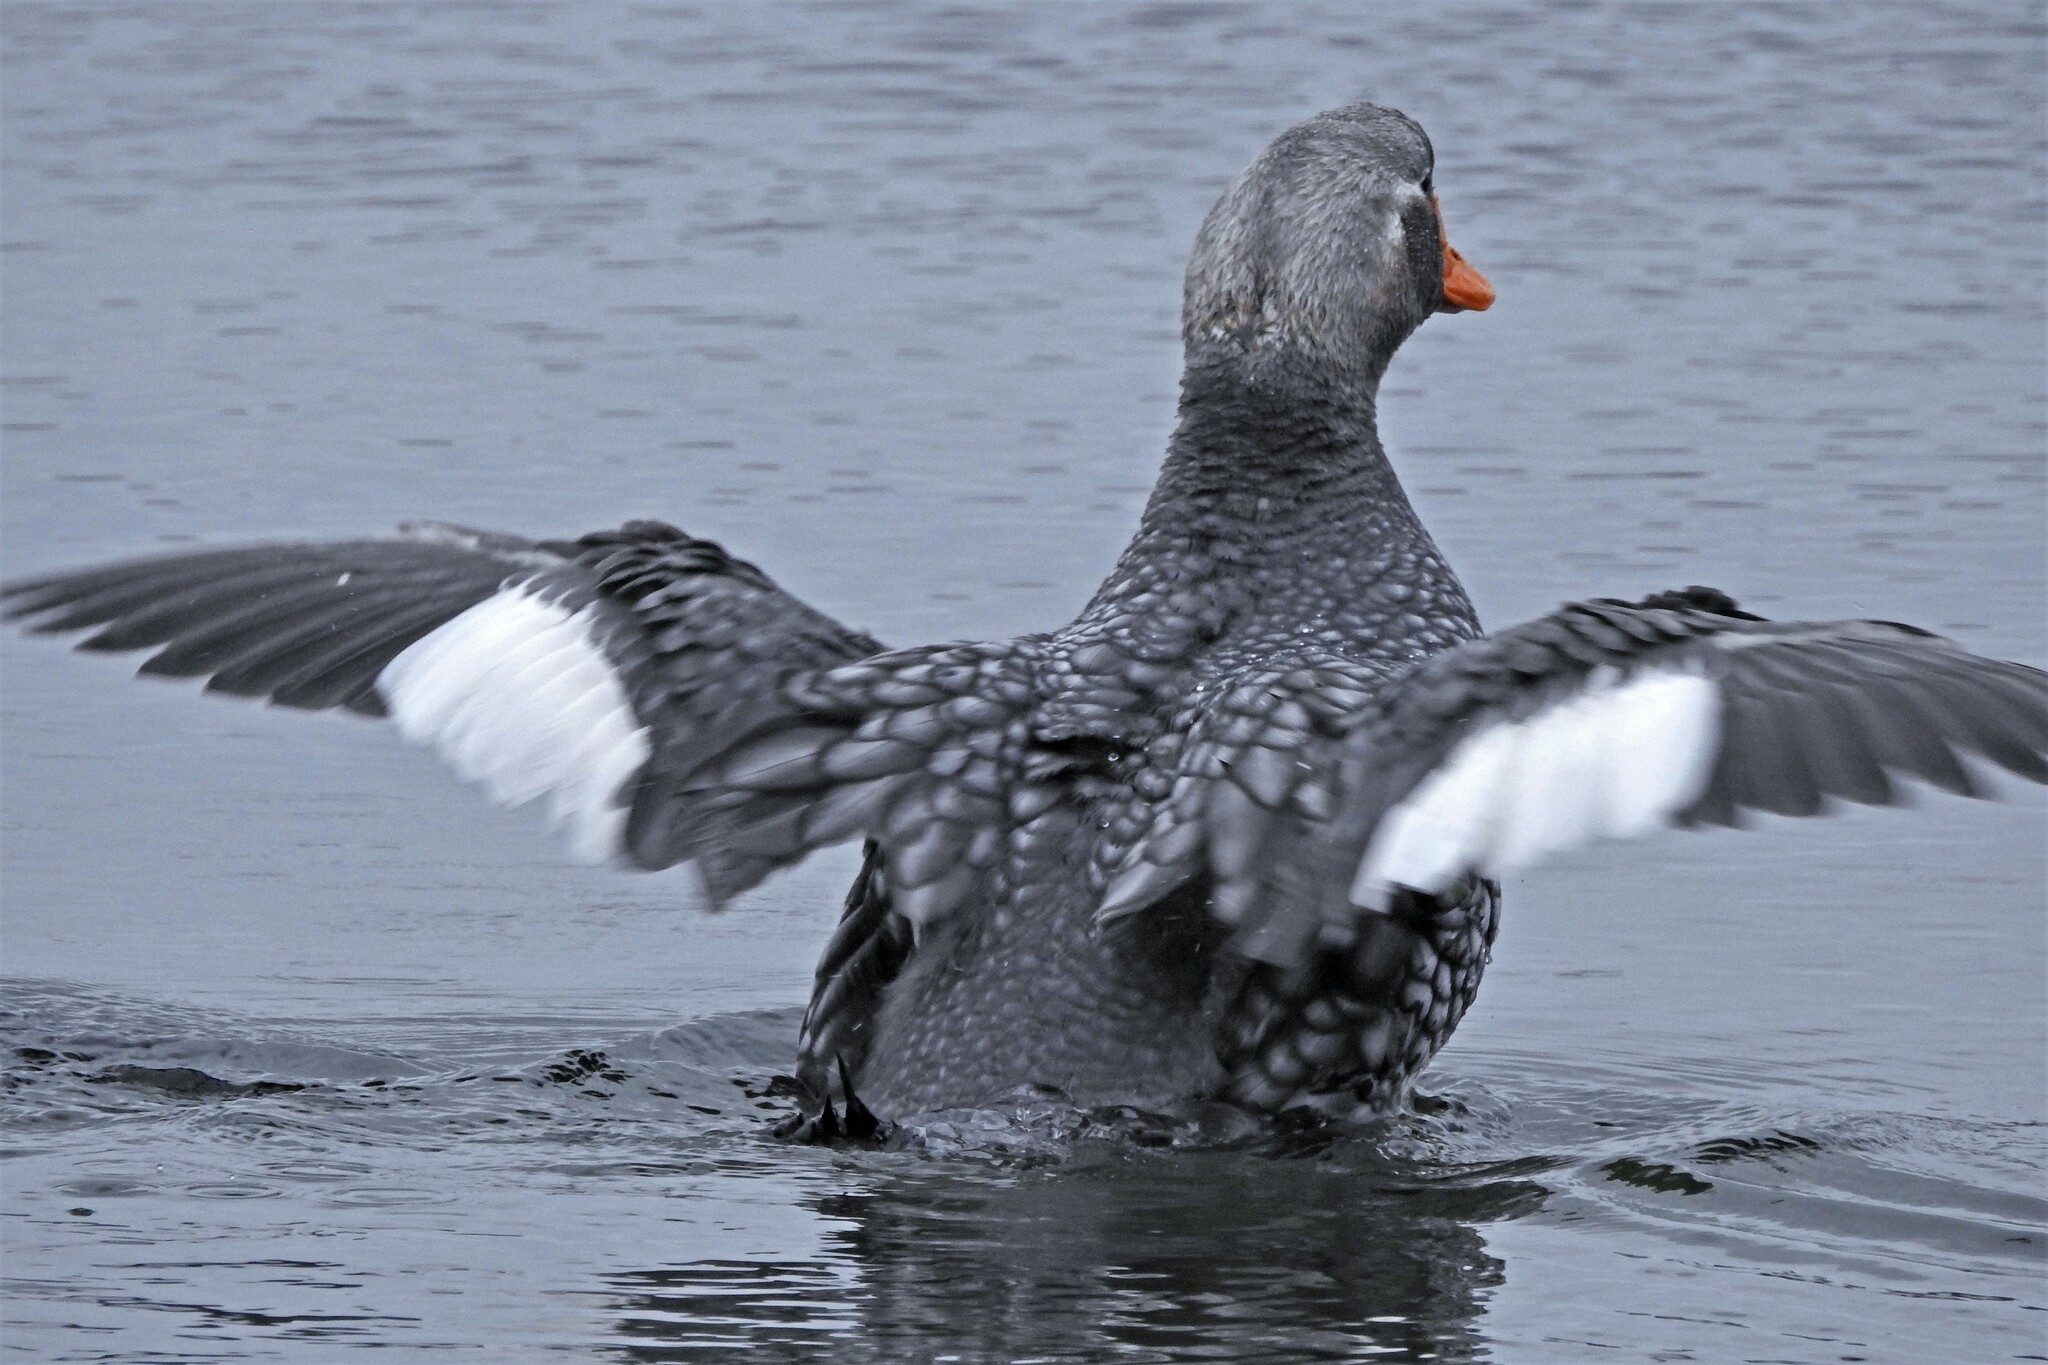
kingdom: Animalia
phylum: Chordata
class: Aves
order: Anseriformes
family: Anatidae
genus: Tachyeres
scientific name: Tachyeres brachypterus
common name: Falkland steamer duck
